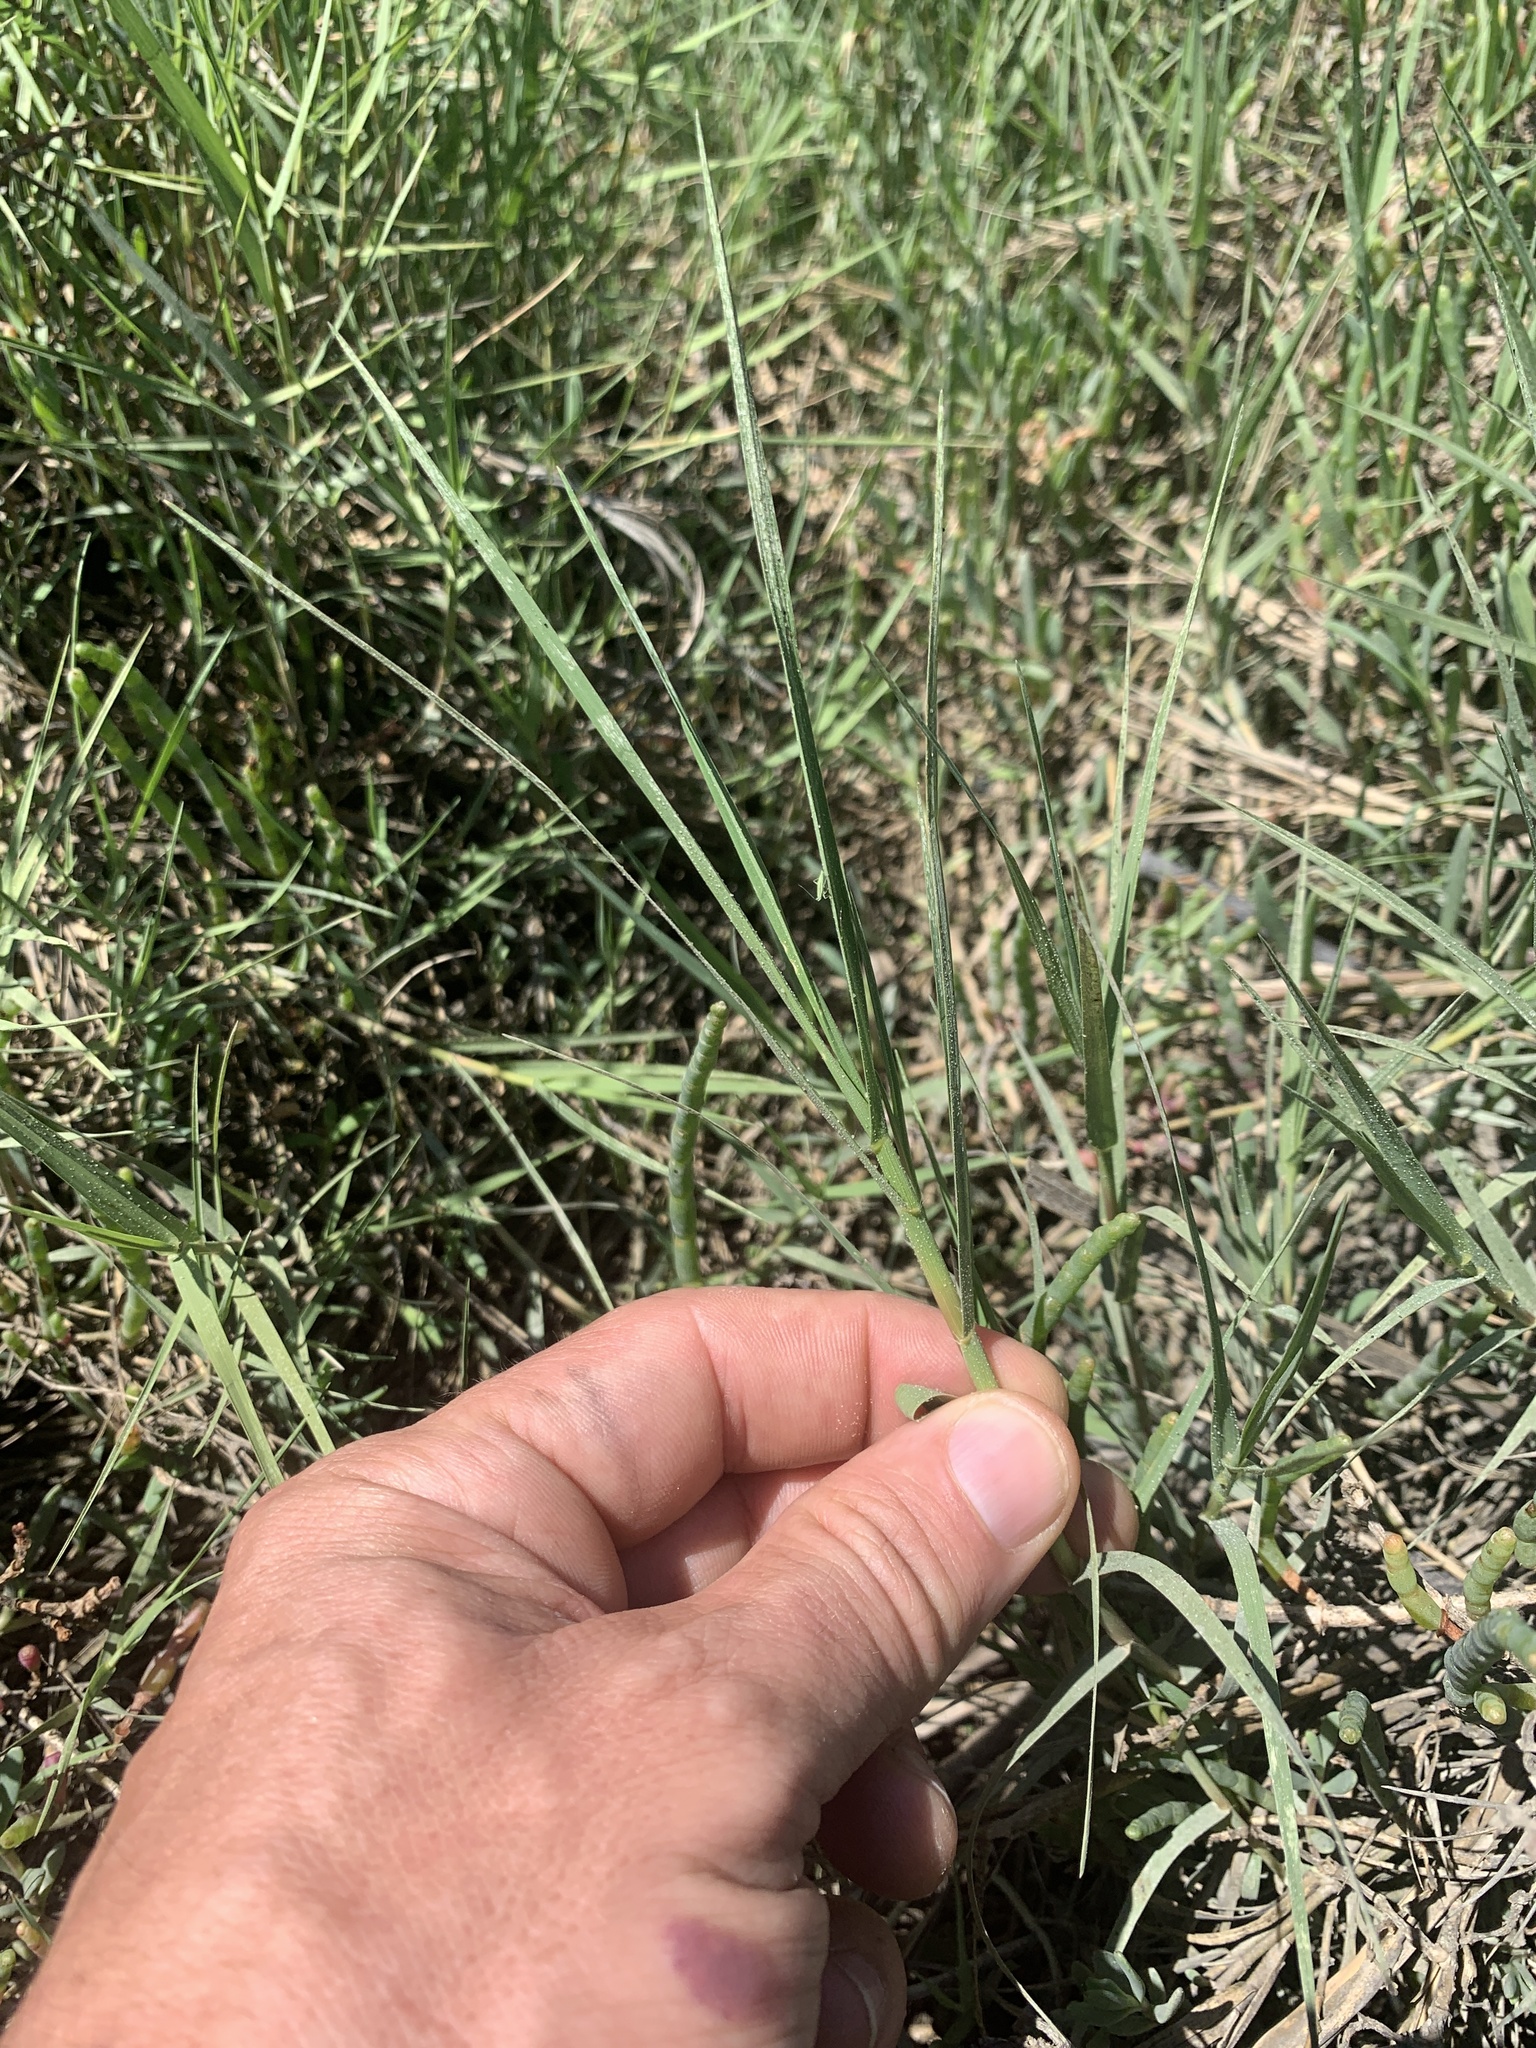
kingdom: Plantae
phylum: Tracheophyta
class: Liliopsida
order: Poales
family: Poaceae
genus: Distichlis
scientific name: Distichlis spicata
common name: Saltgrass
